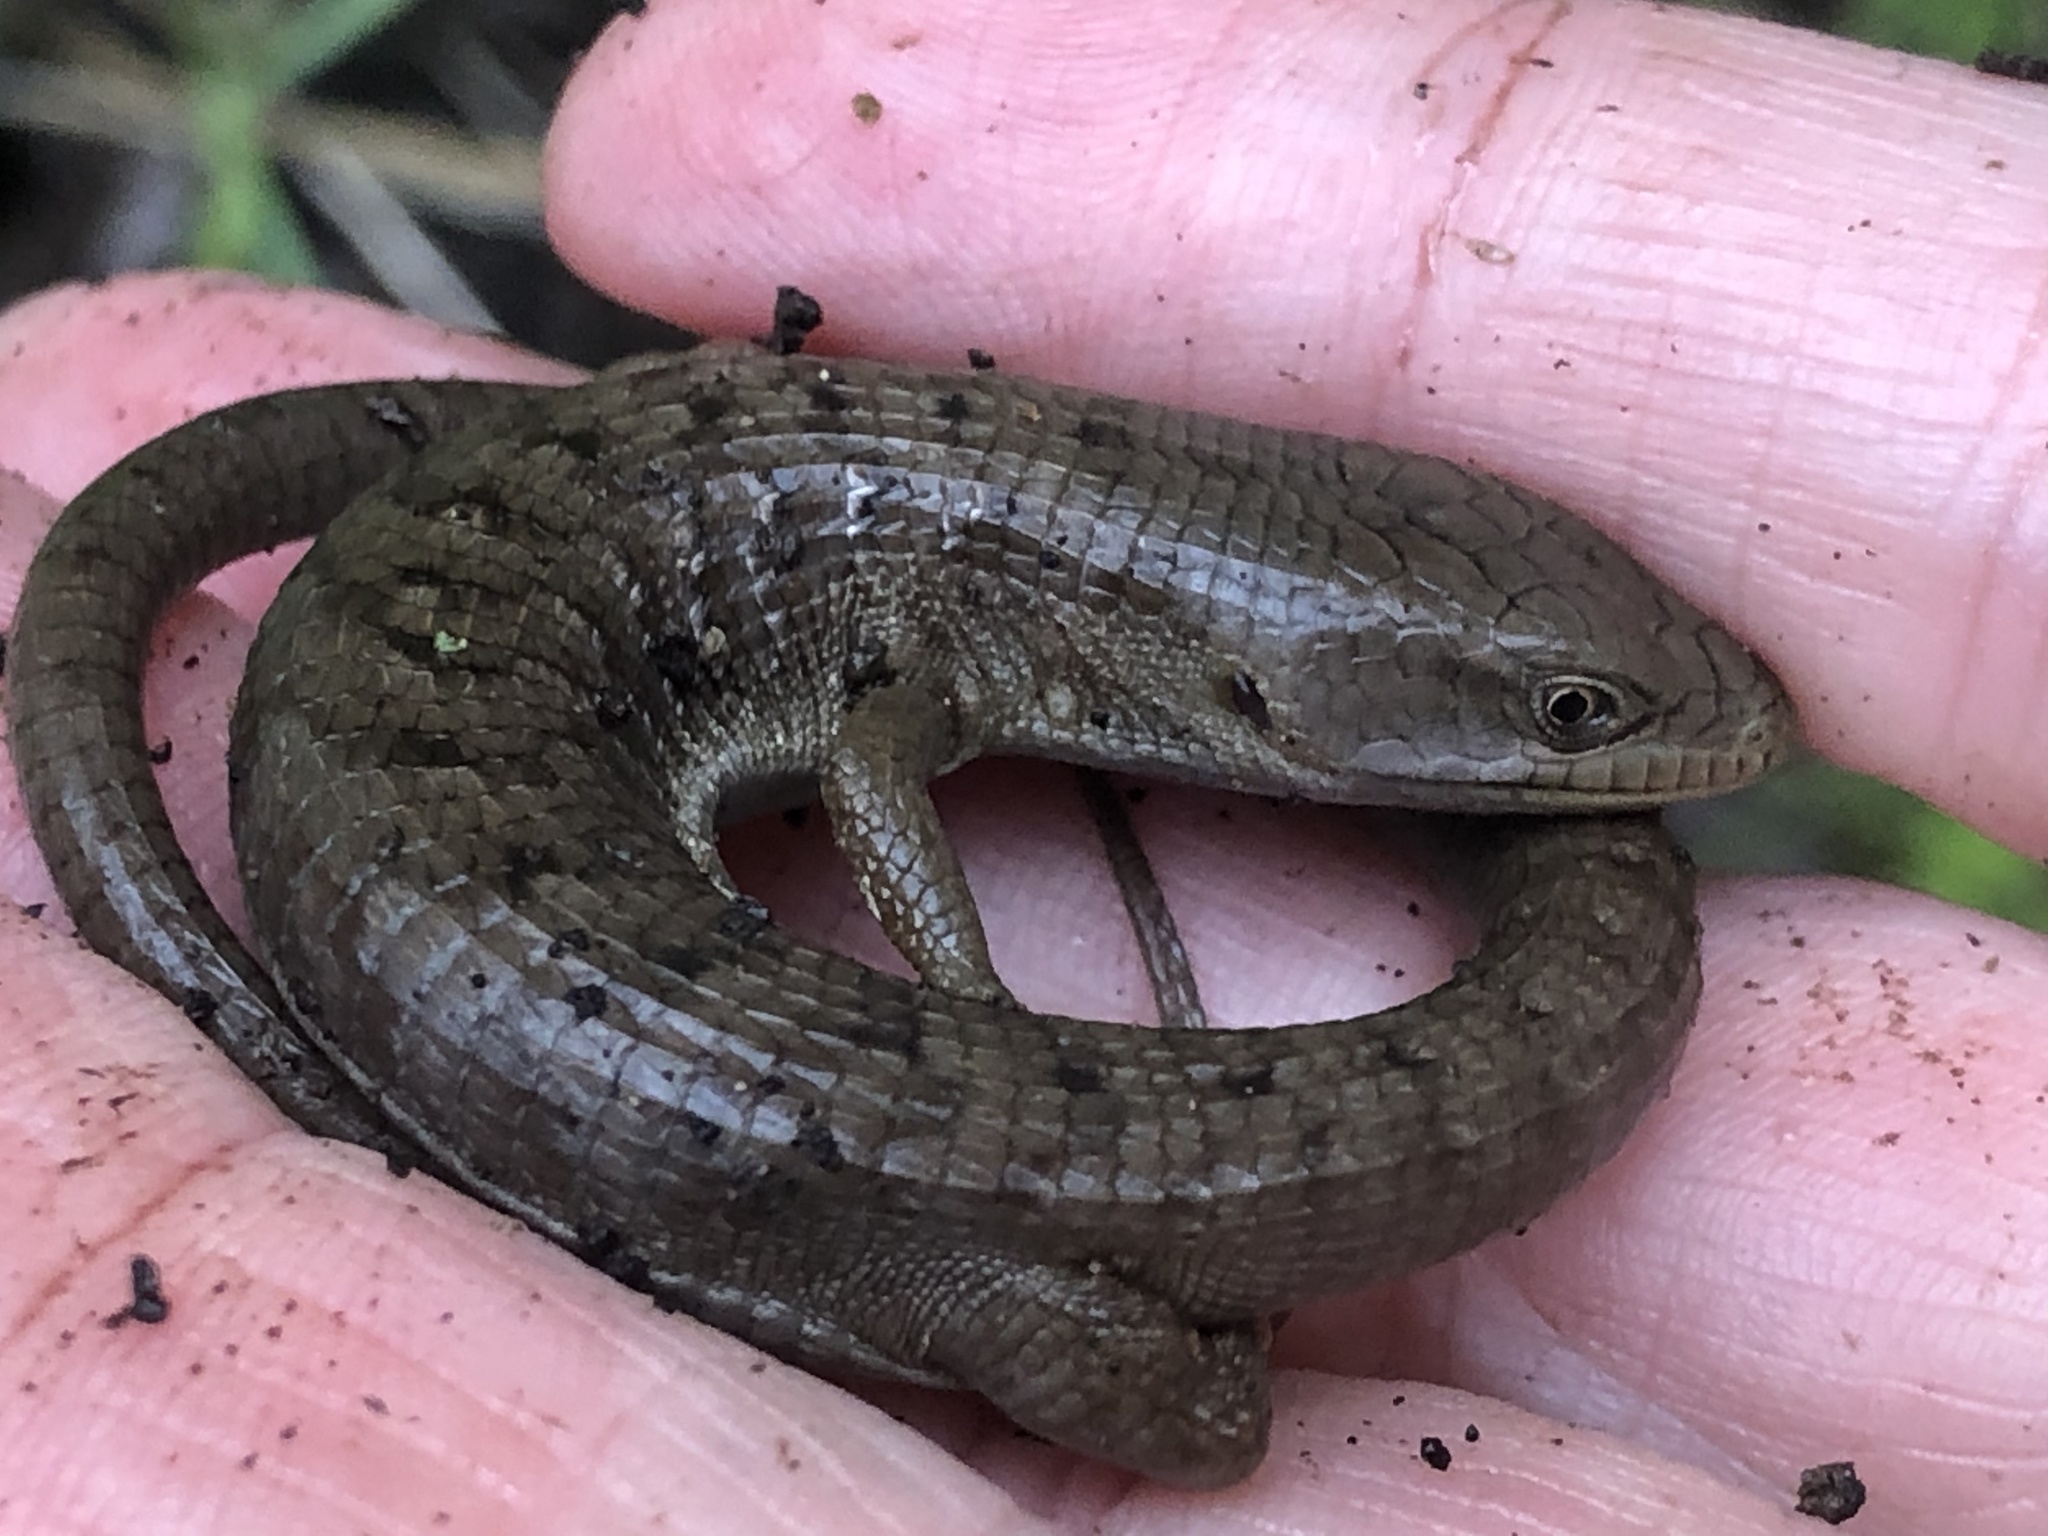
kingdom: Animalia
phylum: Chordata
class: Squamata
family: Anguidae
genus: Elgaria
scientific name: Elgaria multicarinata
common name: Southern alligator lizard
